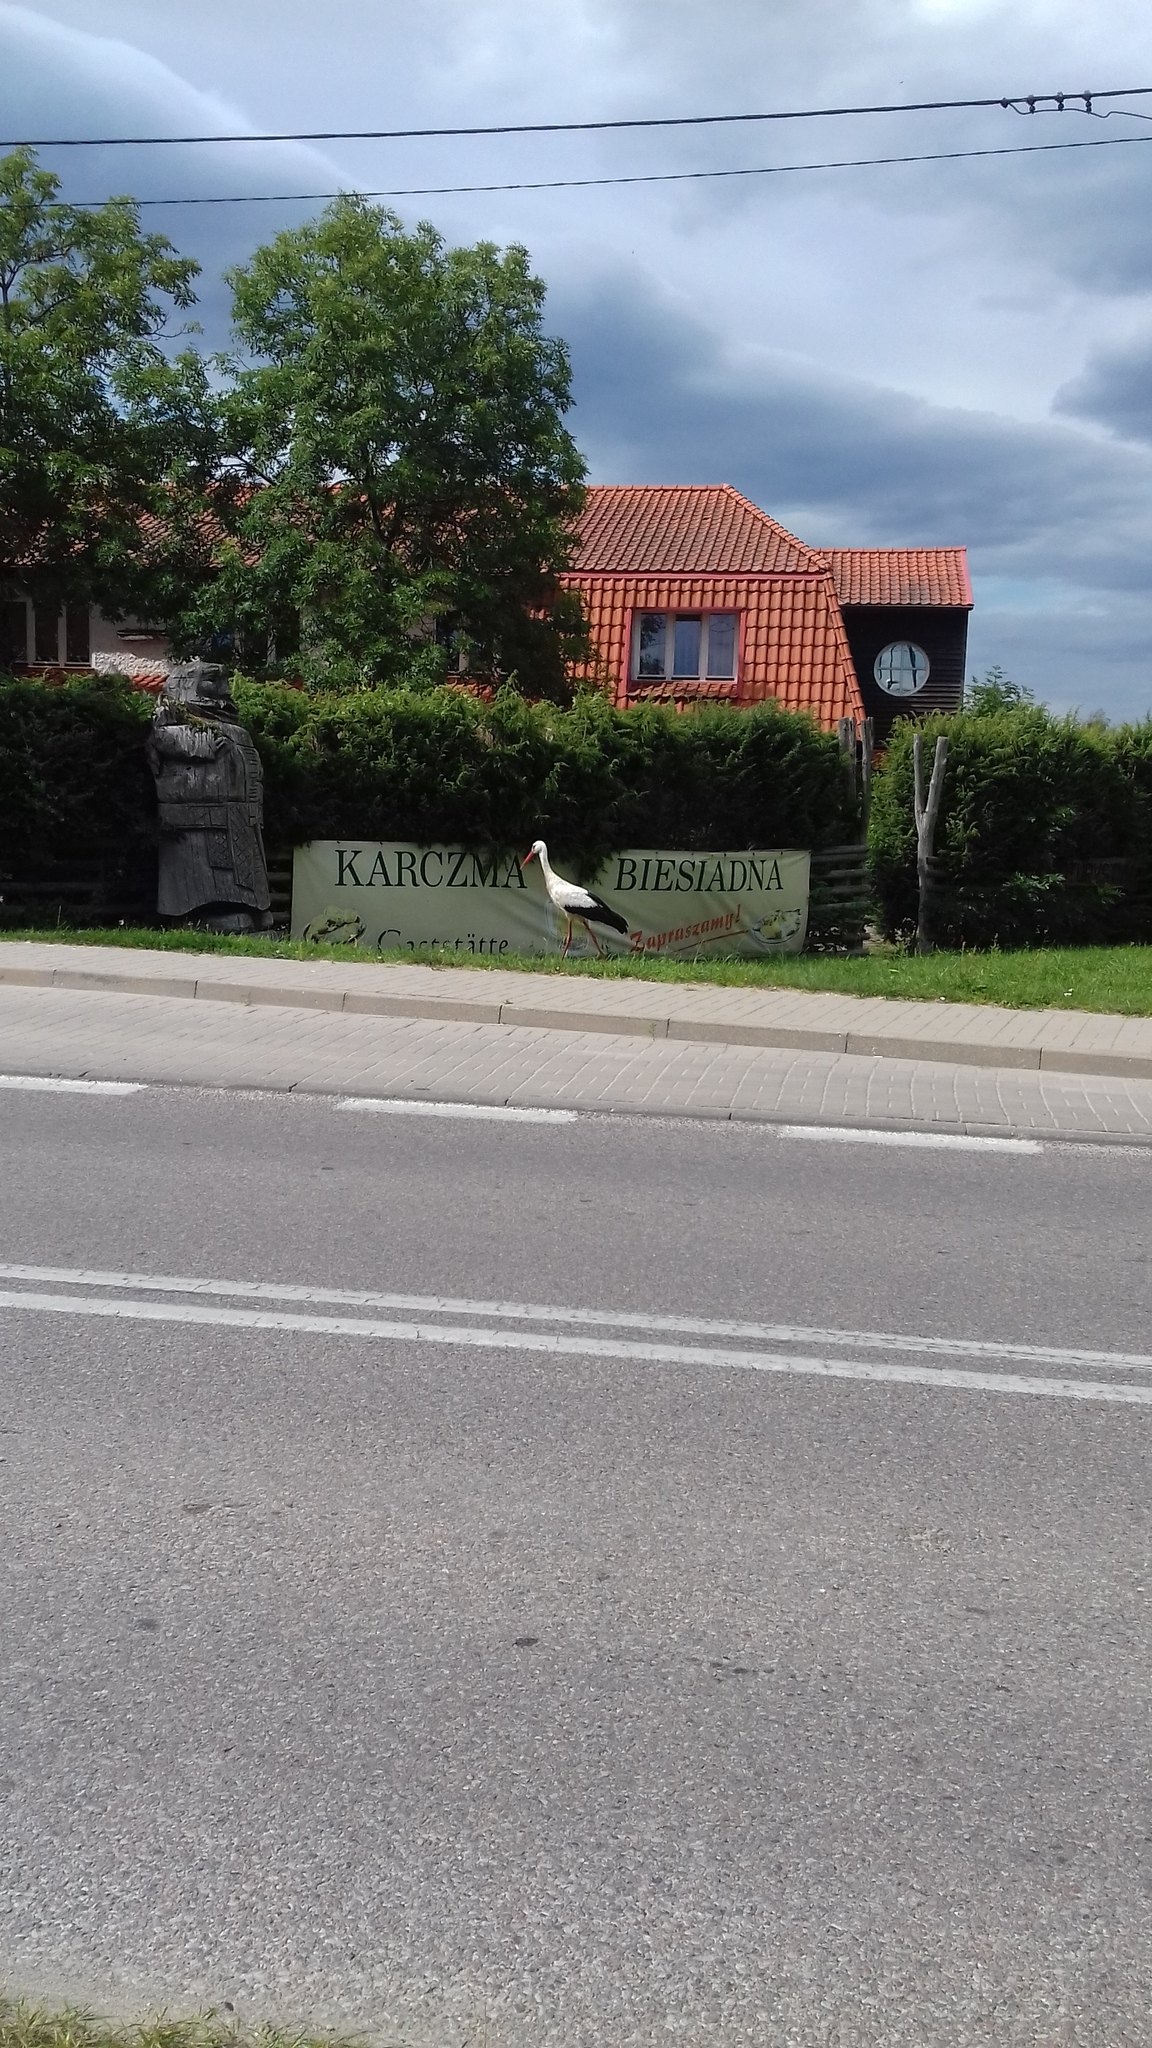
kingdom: Animalia
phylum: Chordata
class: Aves
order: Ciconiiformes
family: Ciconiidae
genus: Ciconia
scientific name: Ciconia ciconia
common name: White stork
